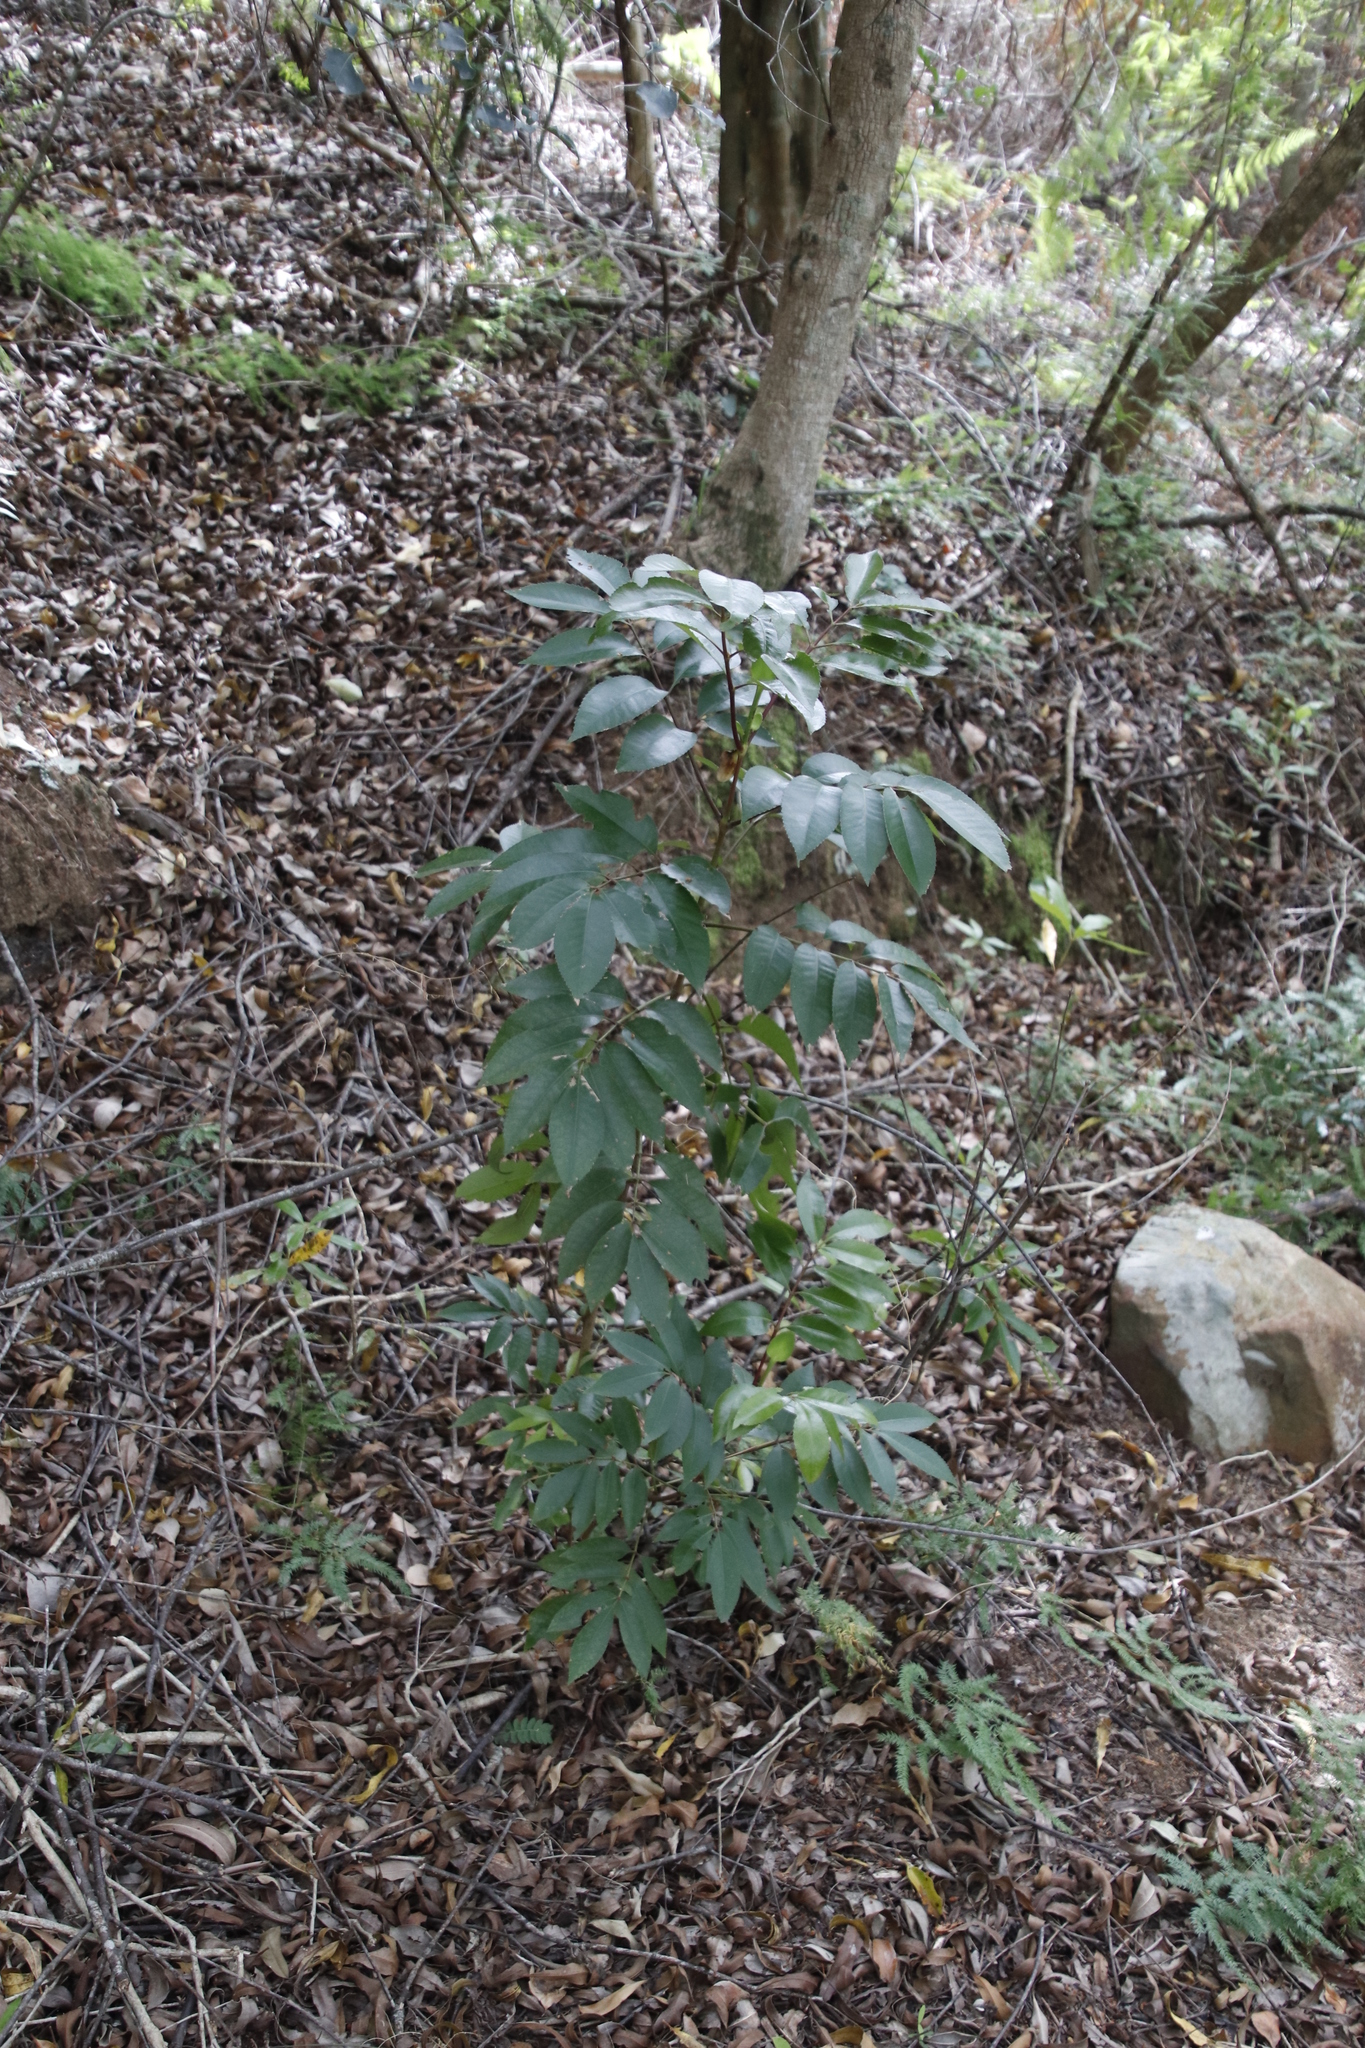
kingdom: Plantae
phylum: Tracheophyta
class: Magnoliopsida
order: Oxalidales
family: Cunoniaceae
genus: Cunonia
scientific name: Cunonia capensis
